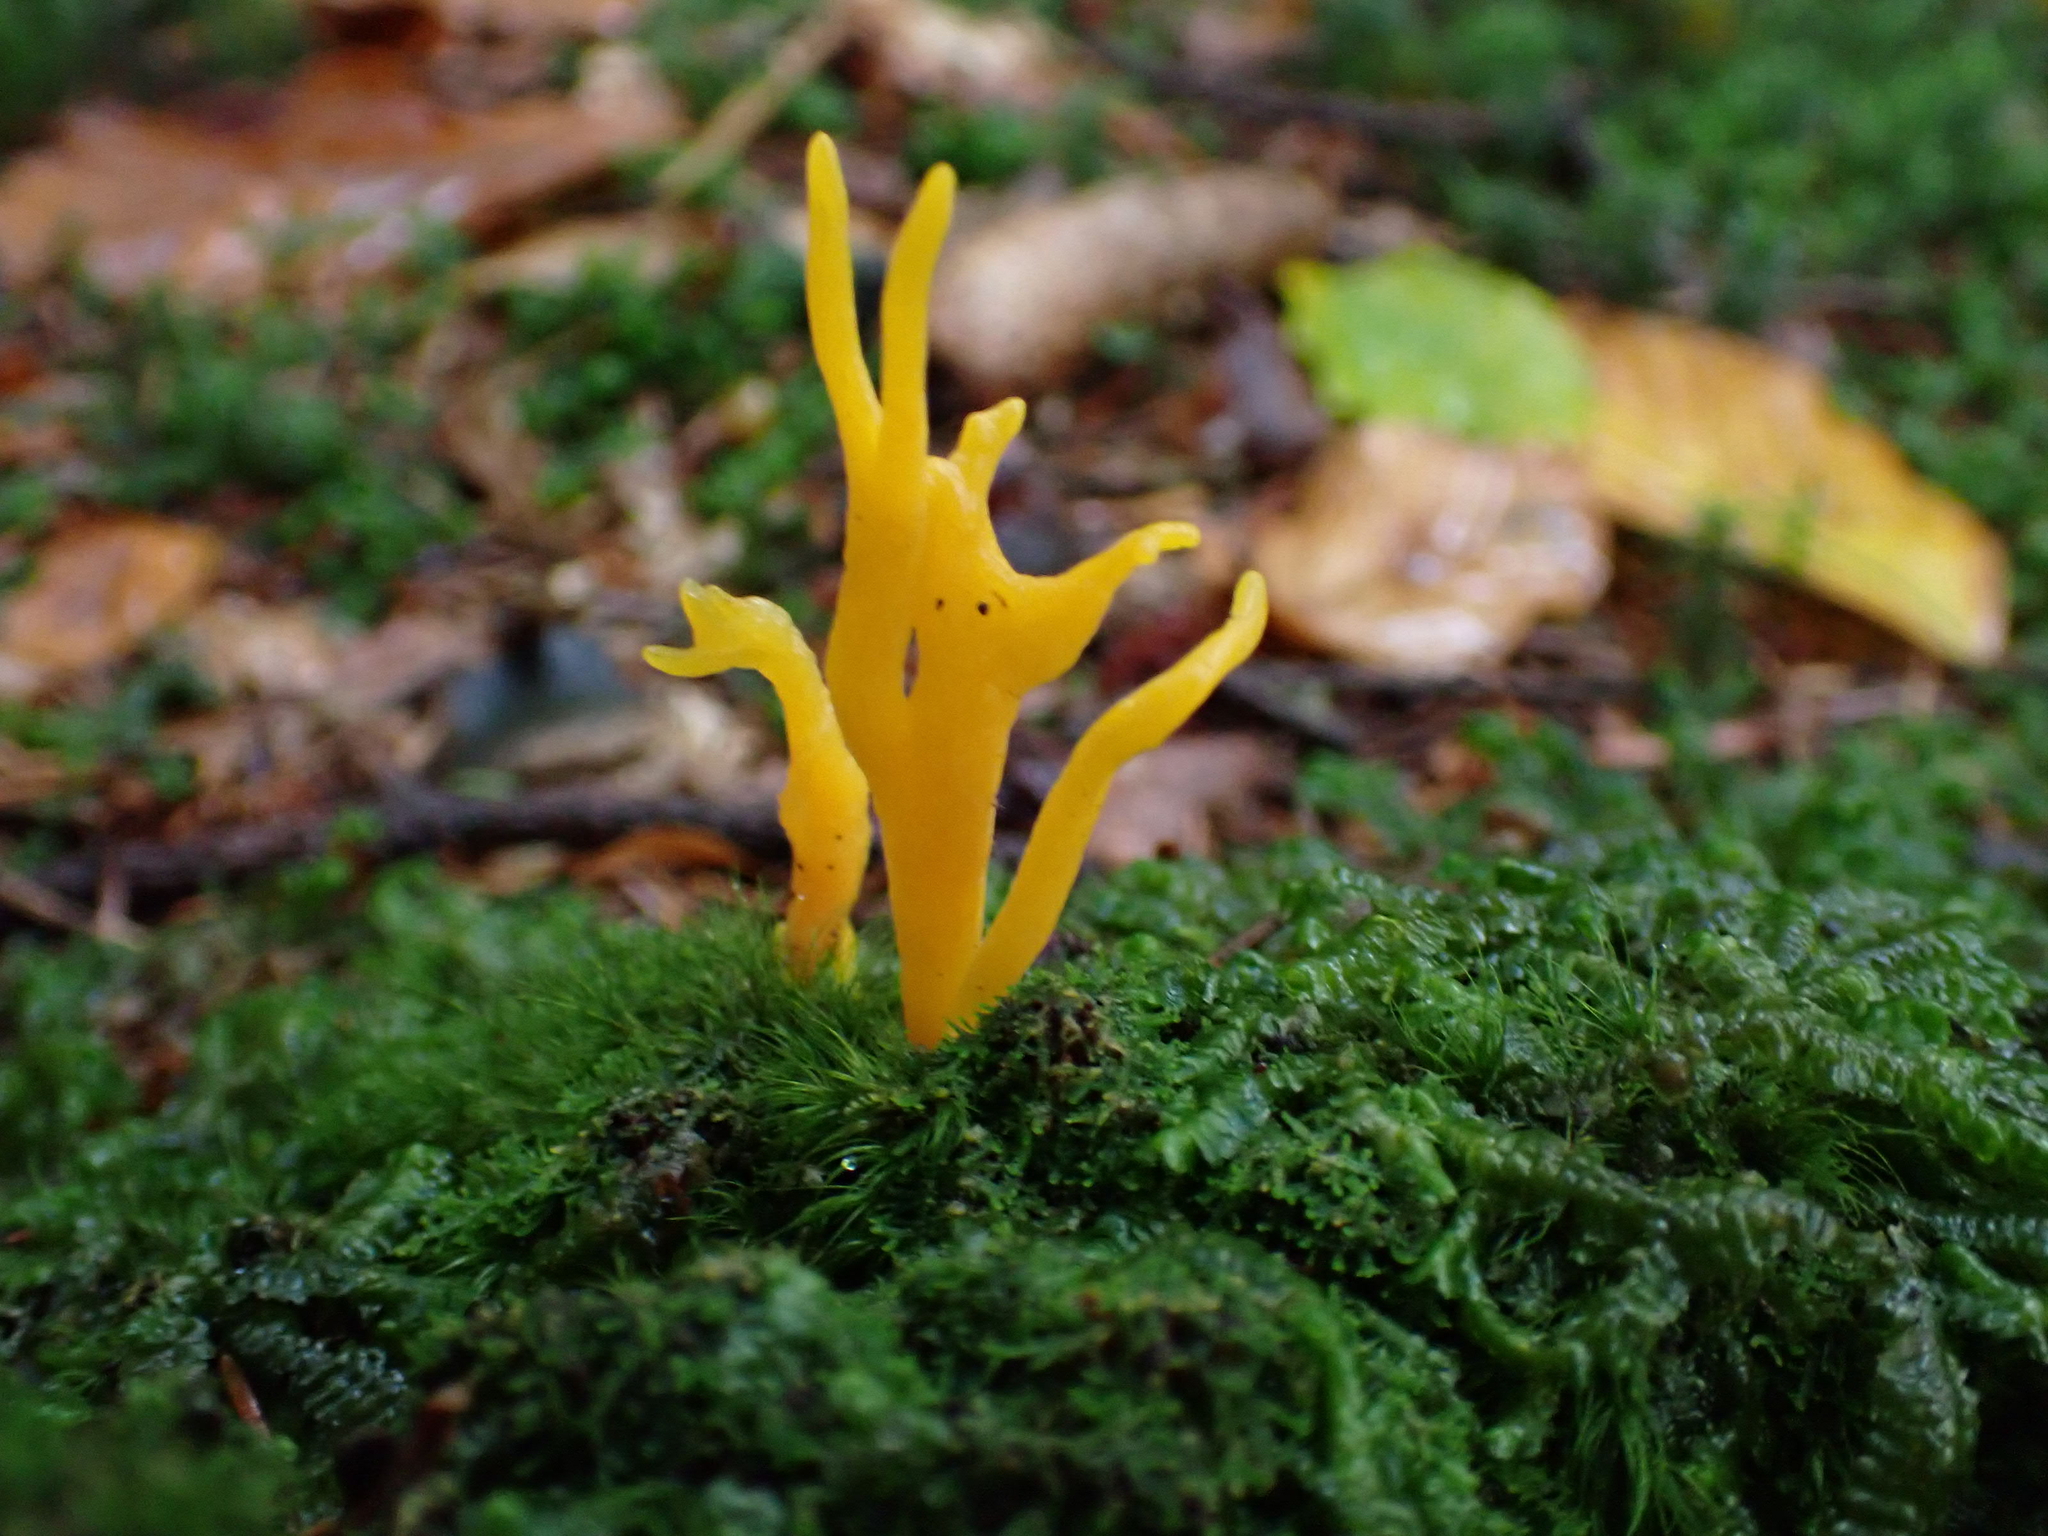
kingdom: Fungi
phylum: Basidiomycota
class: Dacrymycetes
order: Dacrymycetales
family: Dacrymycetaceae
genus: Calocera
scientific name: Calocera viscosa
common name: Yellow stagshorn
